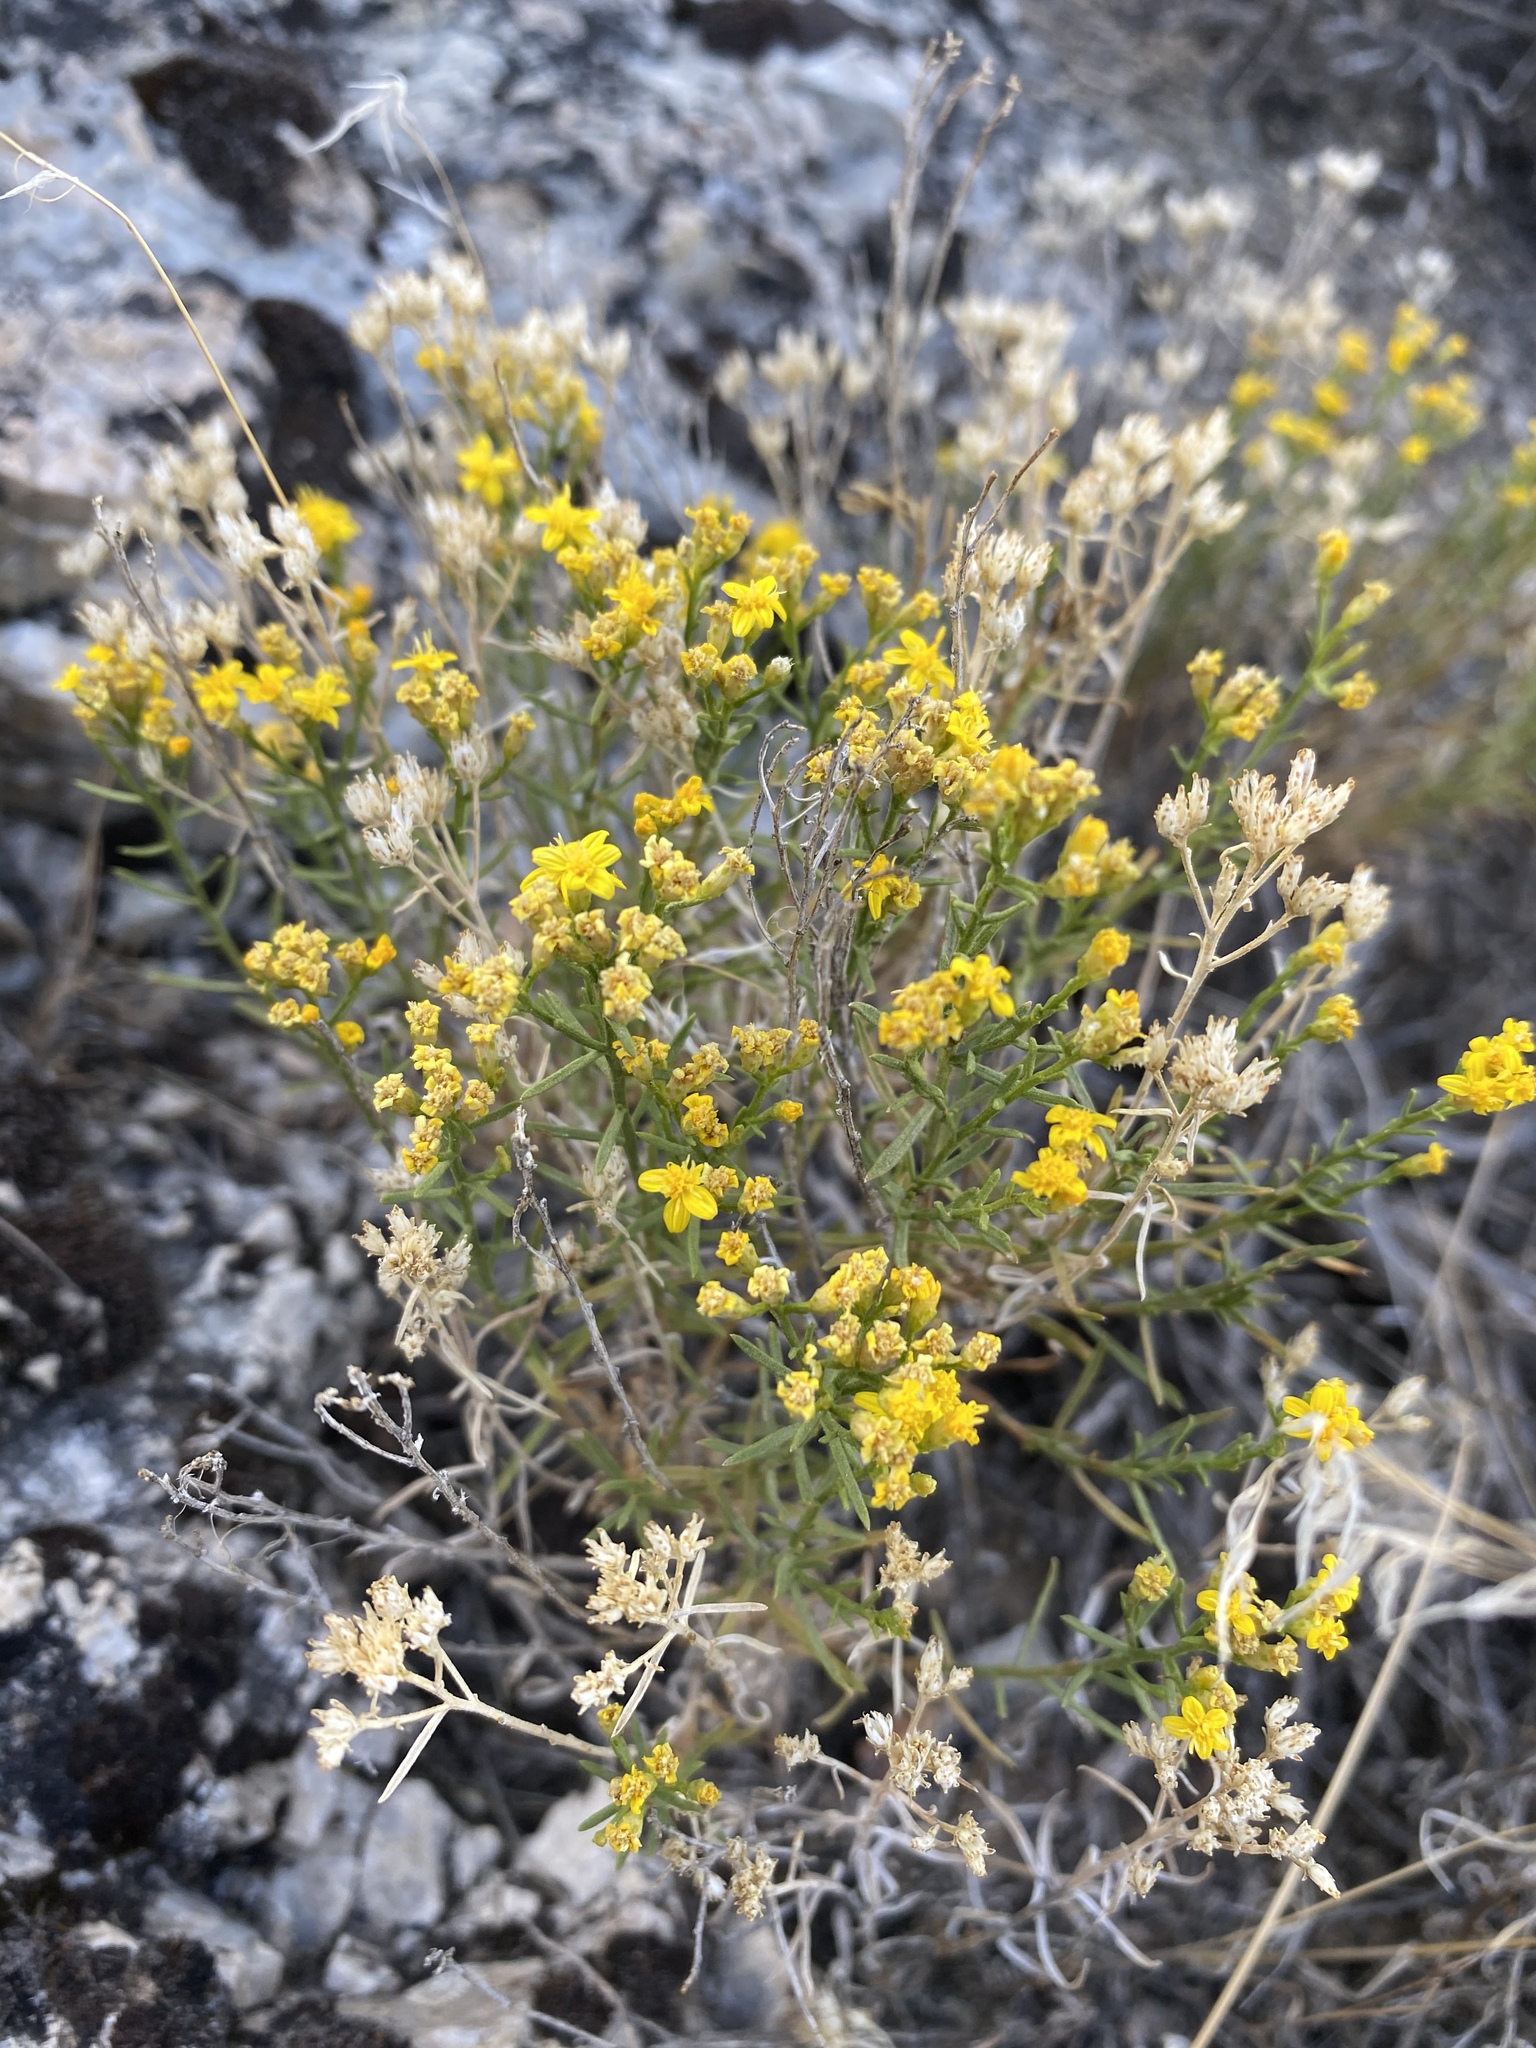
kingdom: Plantae
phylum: Tracheophyta
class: Magnoliopsida
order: Asterales
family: Asteraceae
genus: Gutierrezia
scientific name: Gutierrezia sarothrae
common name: Broom snakeweed
